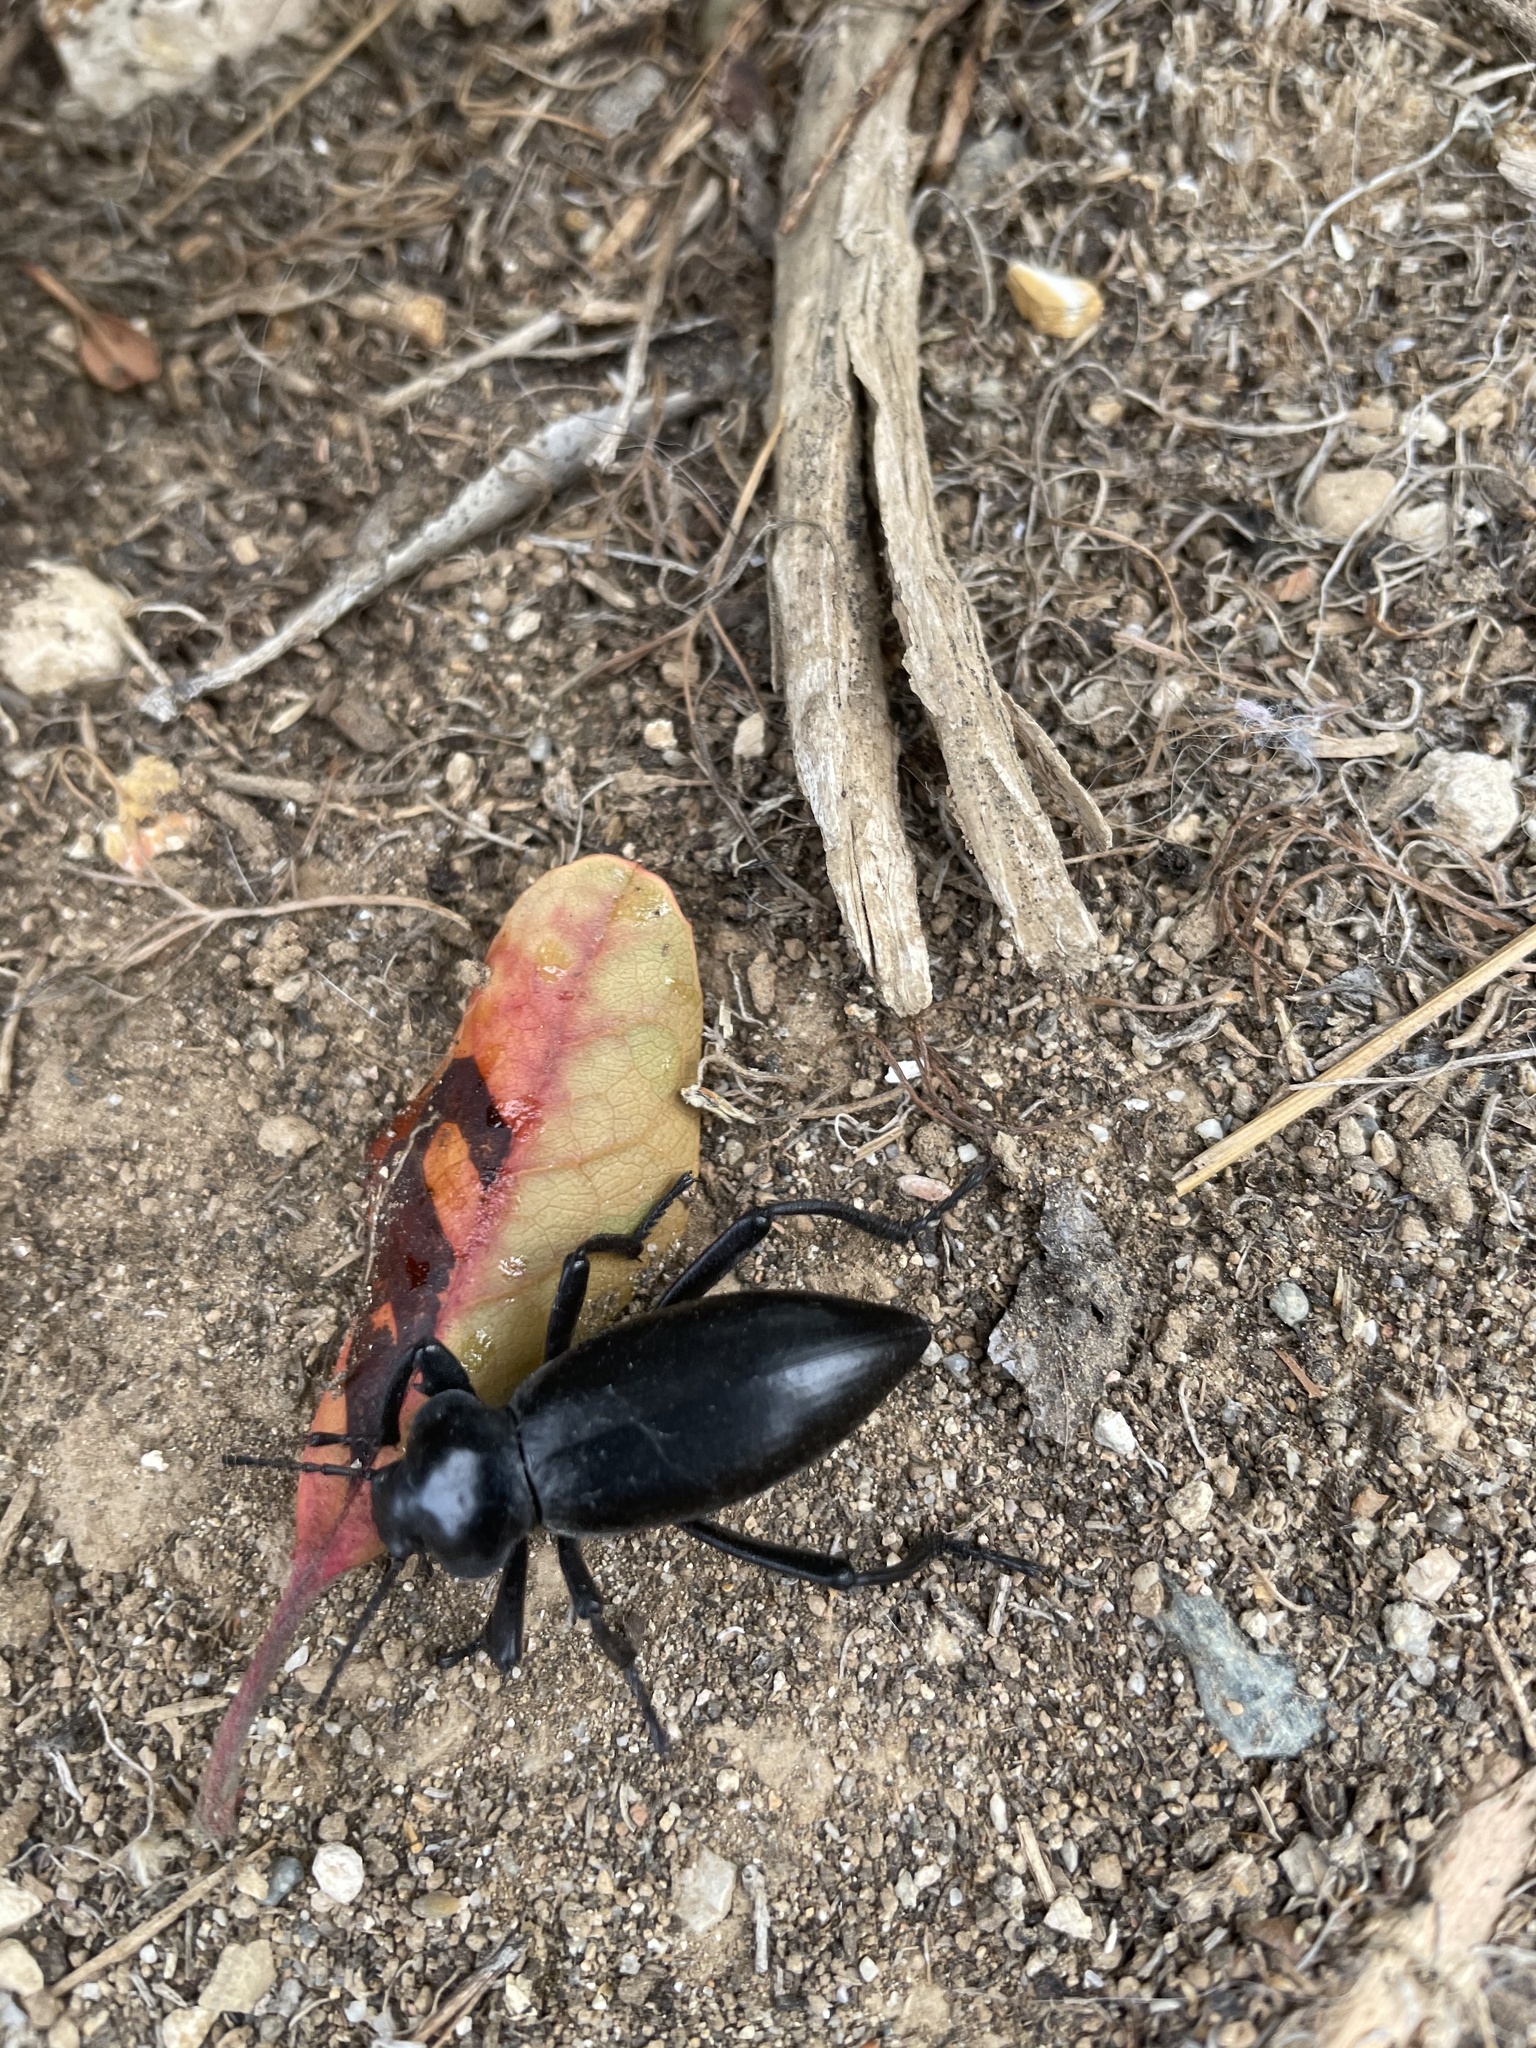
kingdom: Animalia
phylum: Arthropoda
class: Insecta
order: Coleoptera
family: Tenebrionidae
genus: Eleodes
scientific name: Eleodes acuticauda
